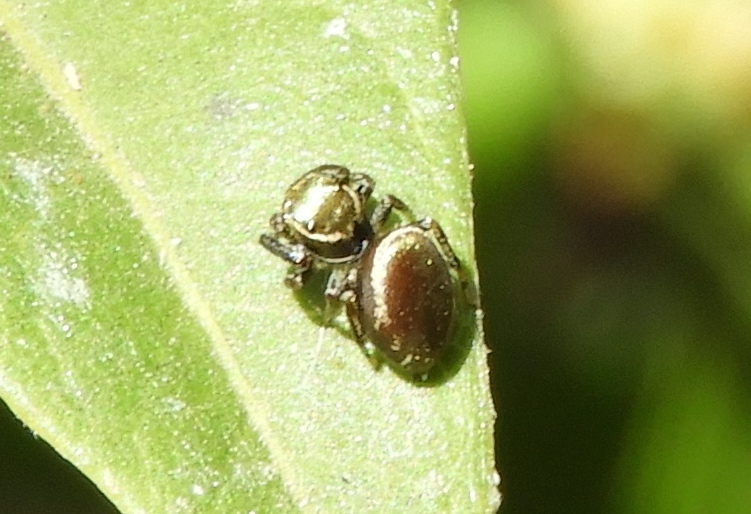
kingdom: Animalia
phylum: Arthropoda
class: Arachnida
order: Araneae
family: Salticidae
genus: Messua
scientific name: Messua limbata
